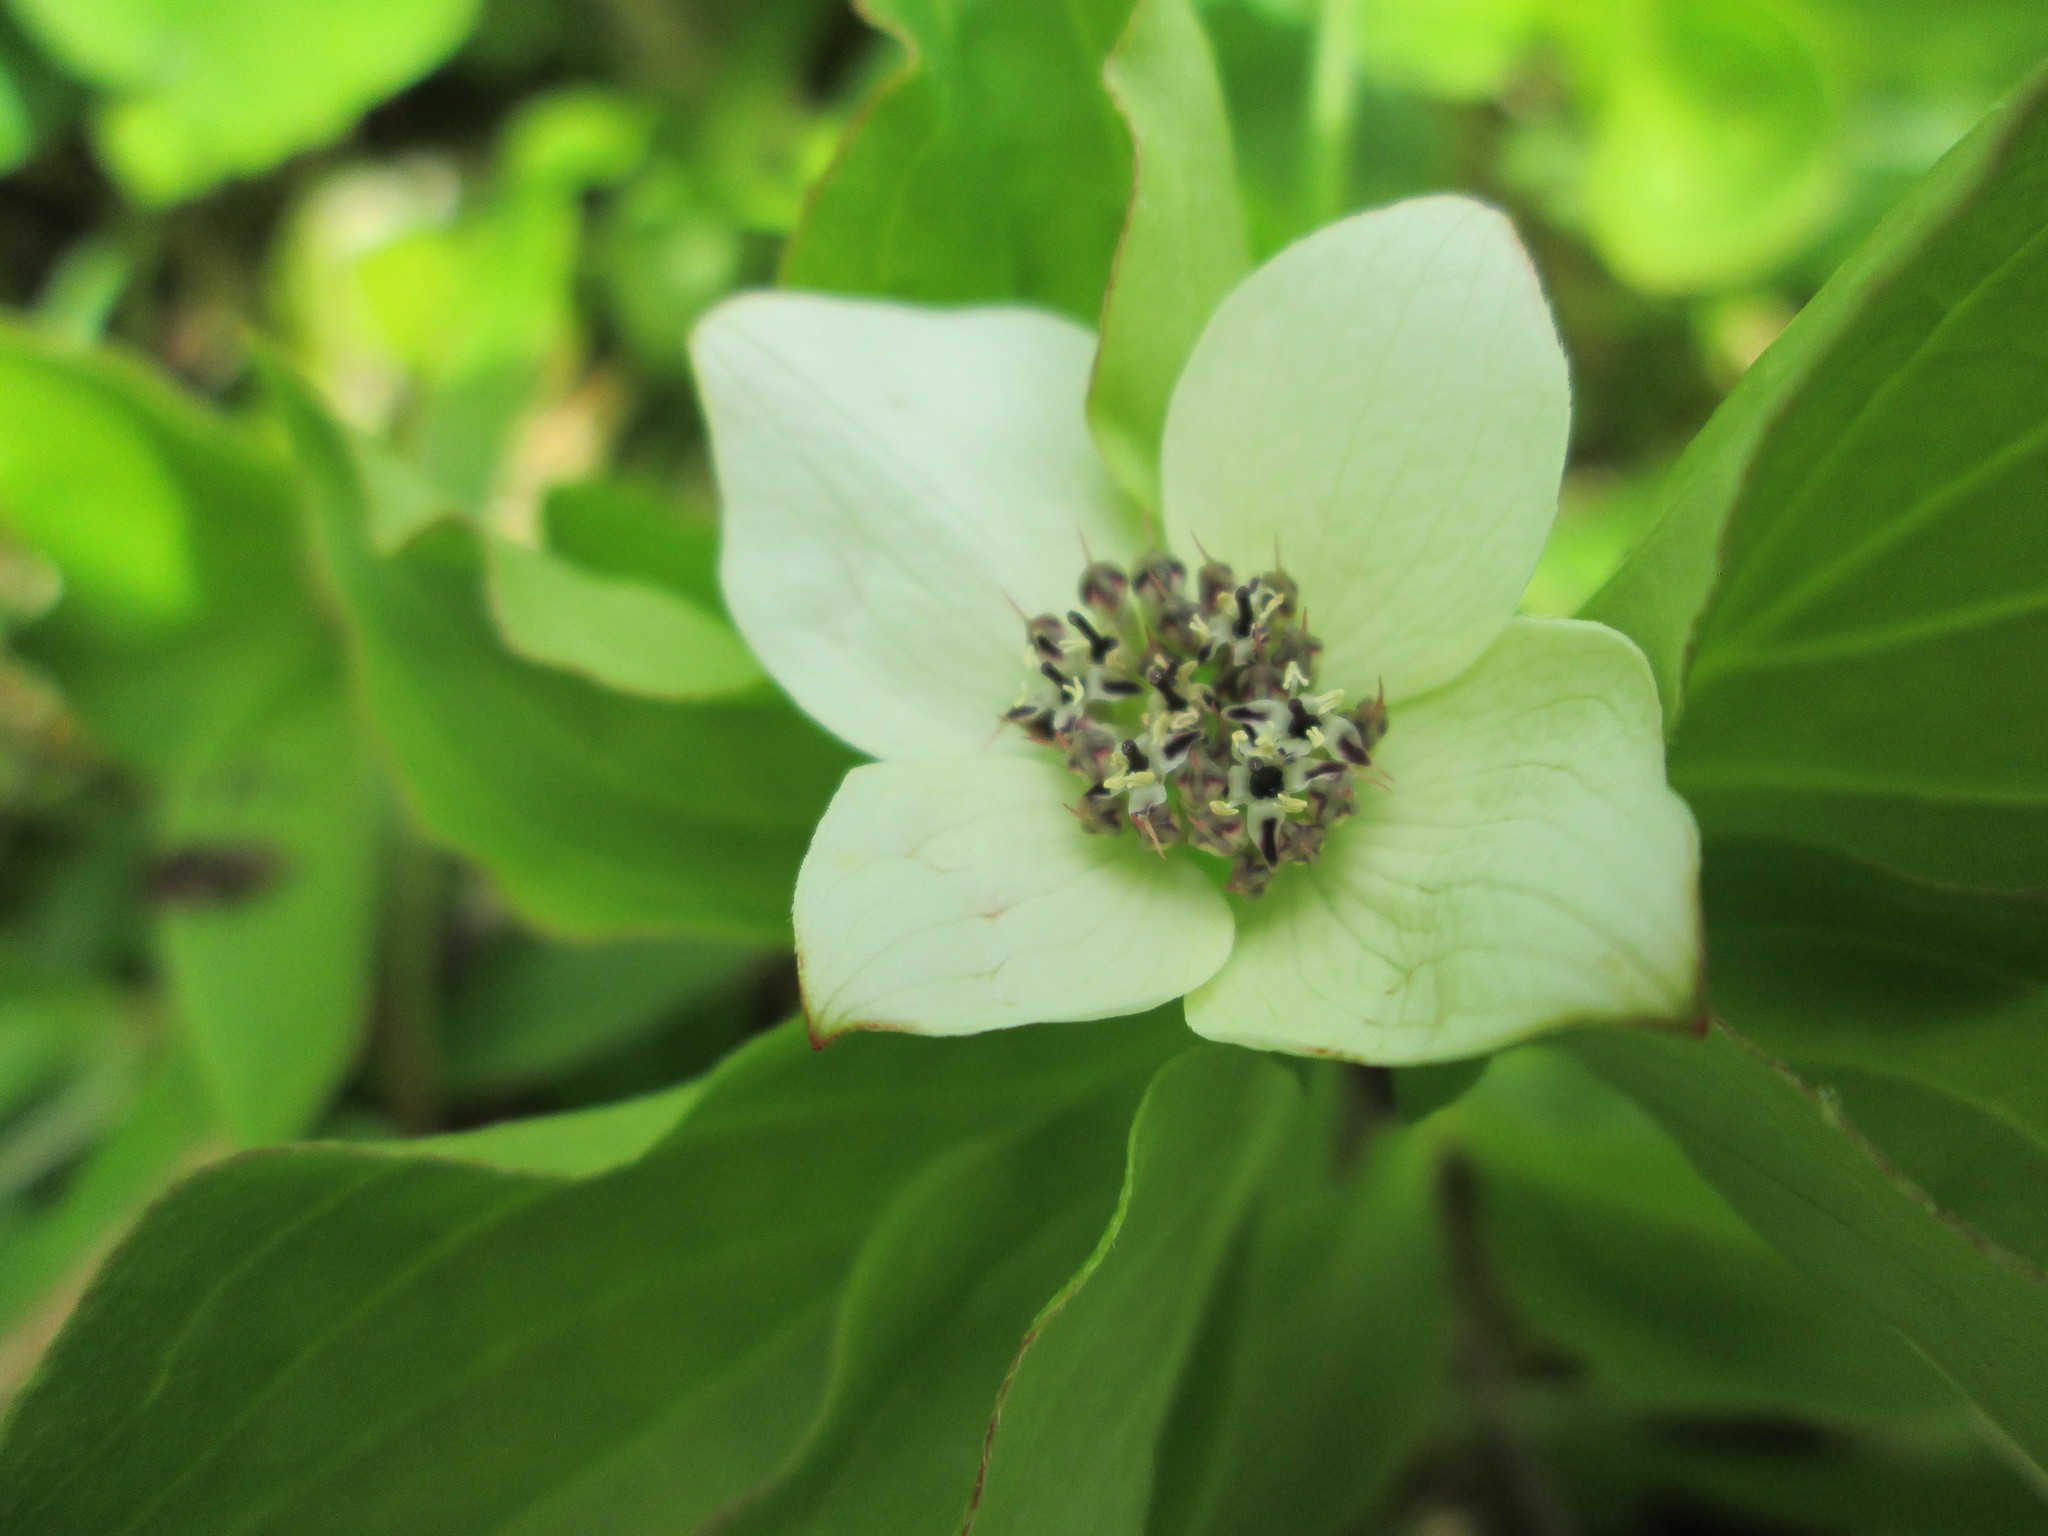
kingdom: Plantae
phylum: Tracheophyta
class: Magnoliopsida
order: Cornales
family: Cornaceae
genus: Cornus
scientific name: Cornus unalaschkensis
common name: Alaska bunchberry
